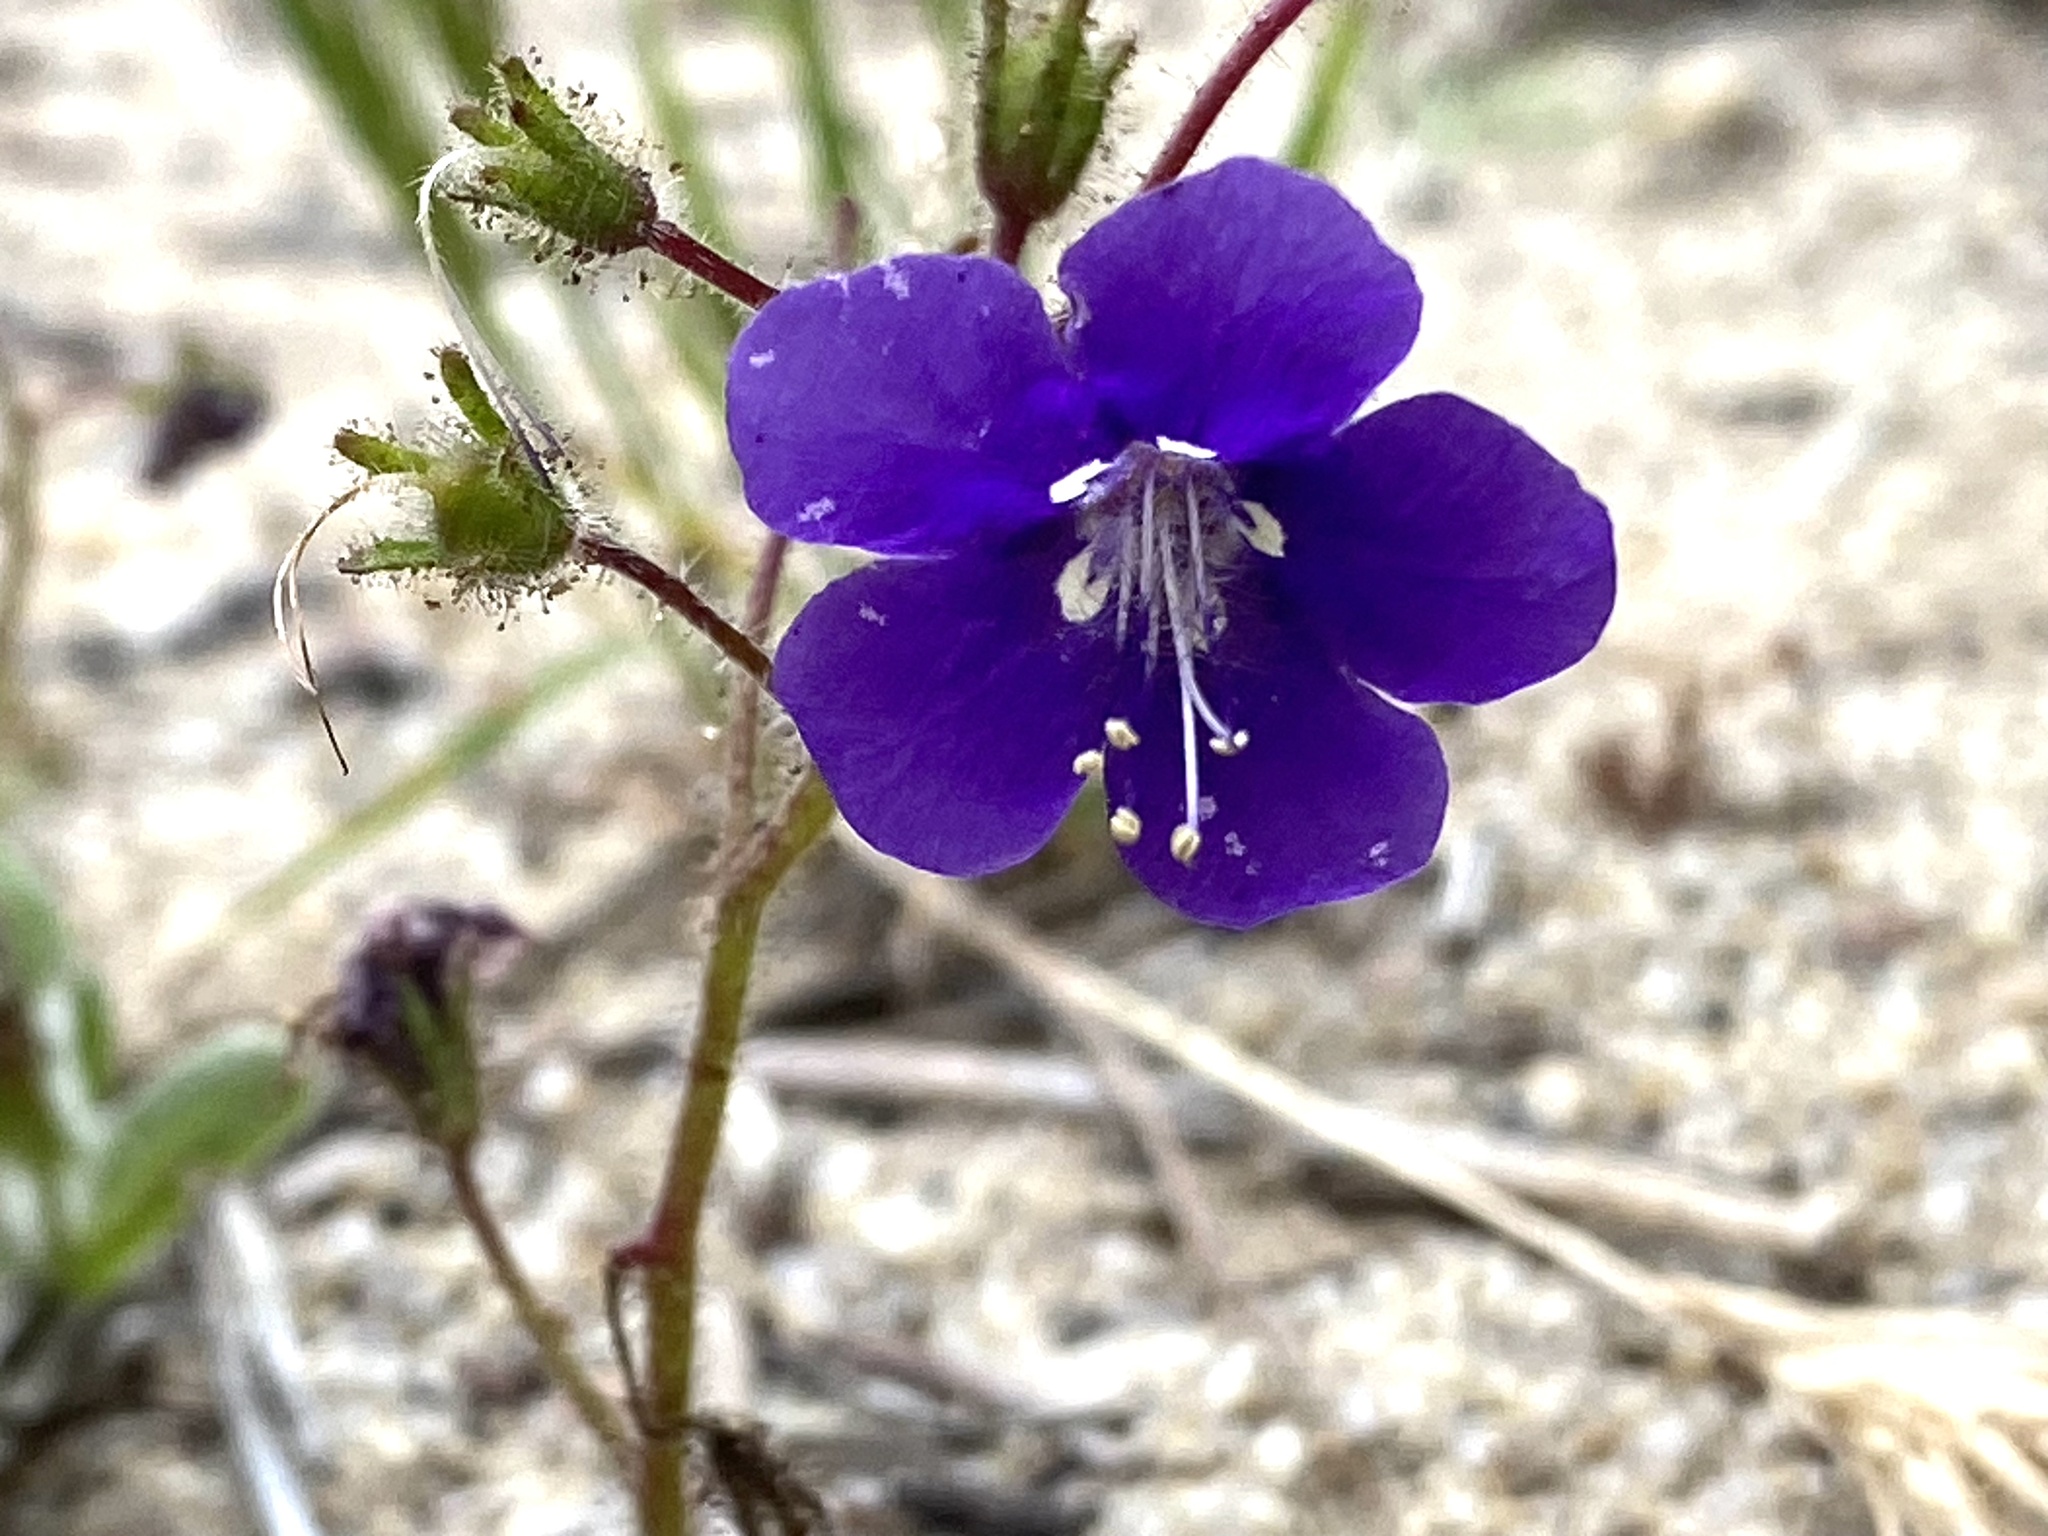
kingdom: Plantae
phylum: Tracheophyta
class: Magnoliopsida
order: Boraginales
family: Hydrophyllaceae
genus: Phacelia
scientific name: Phacelia parryi
